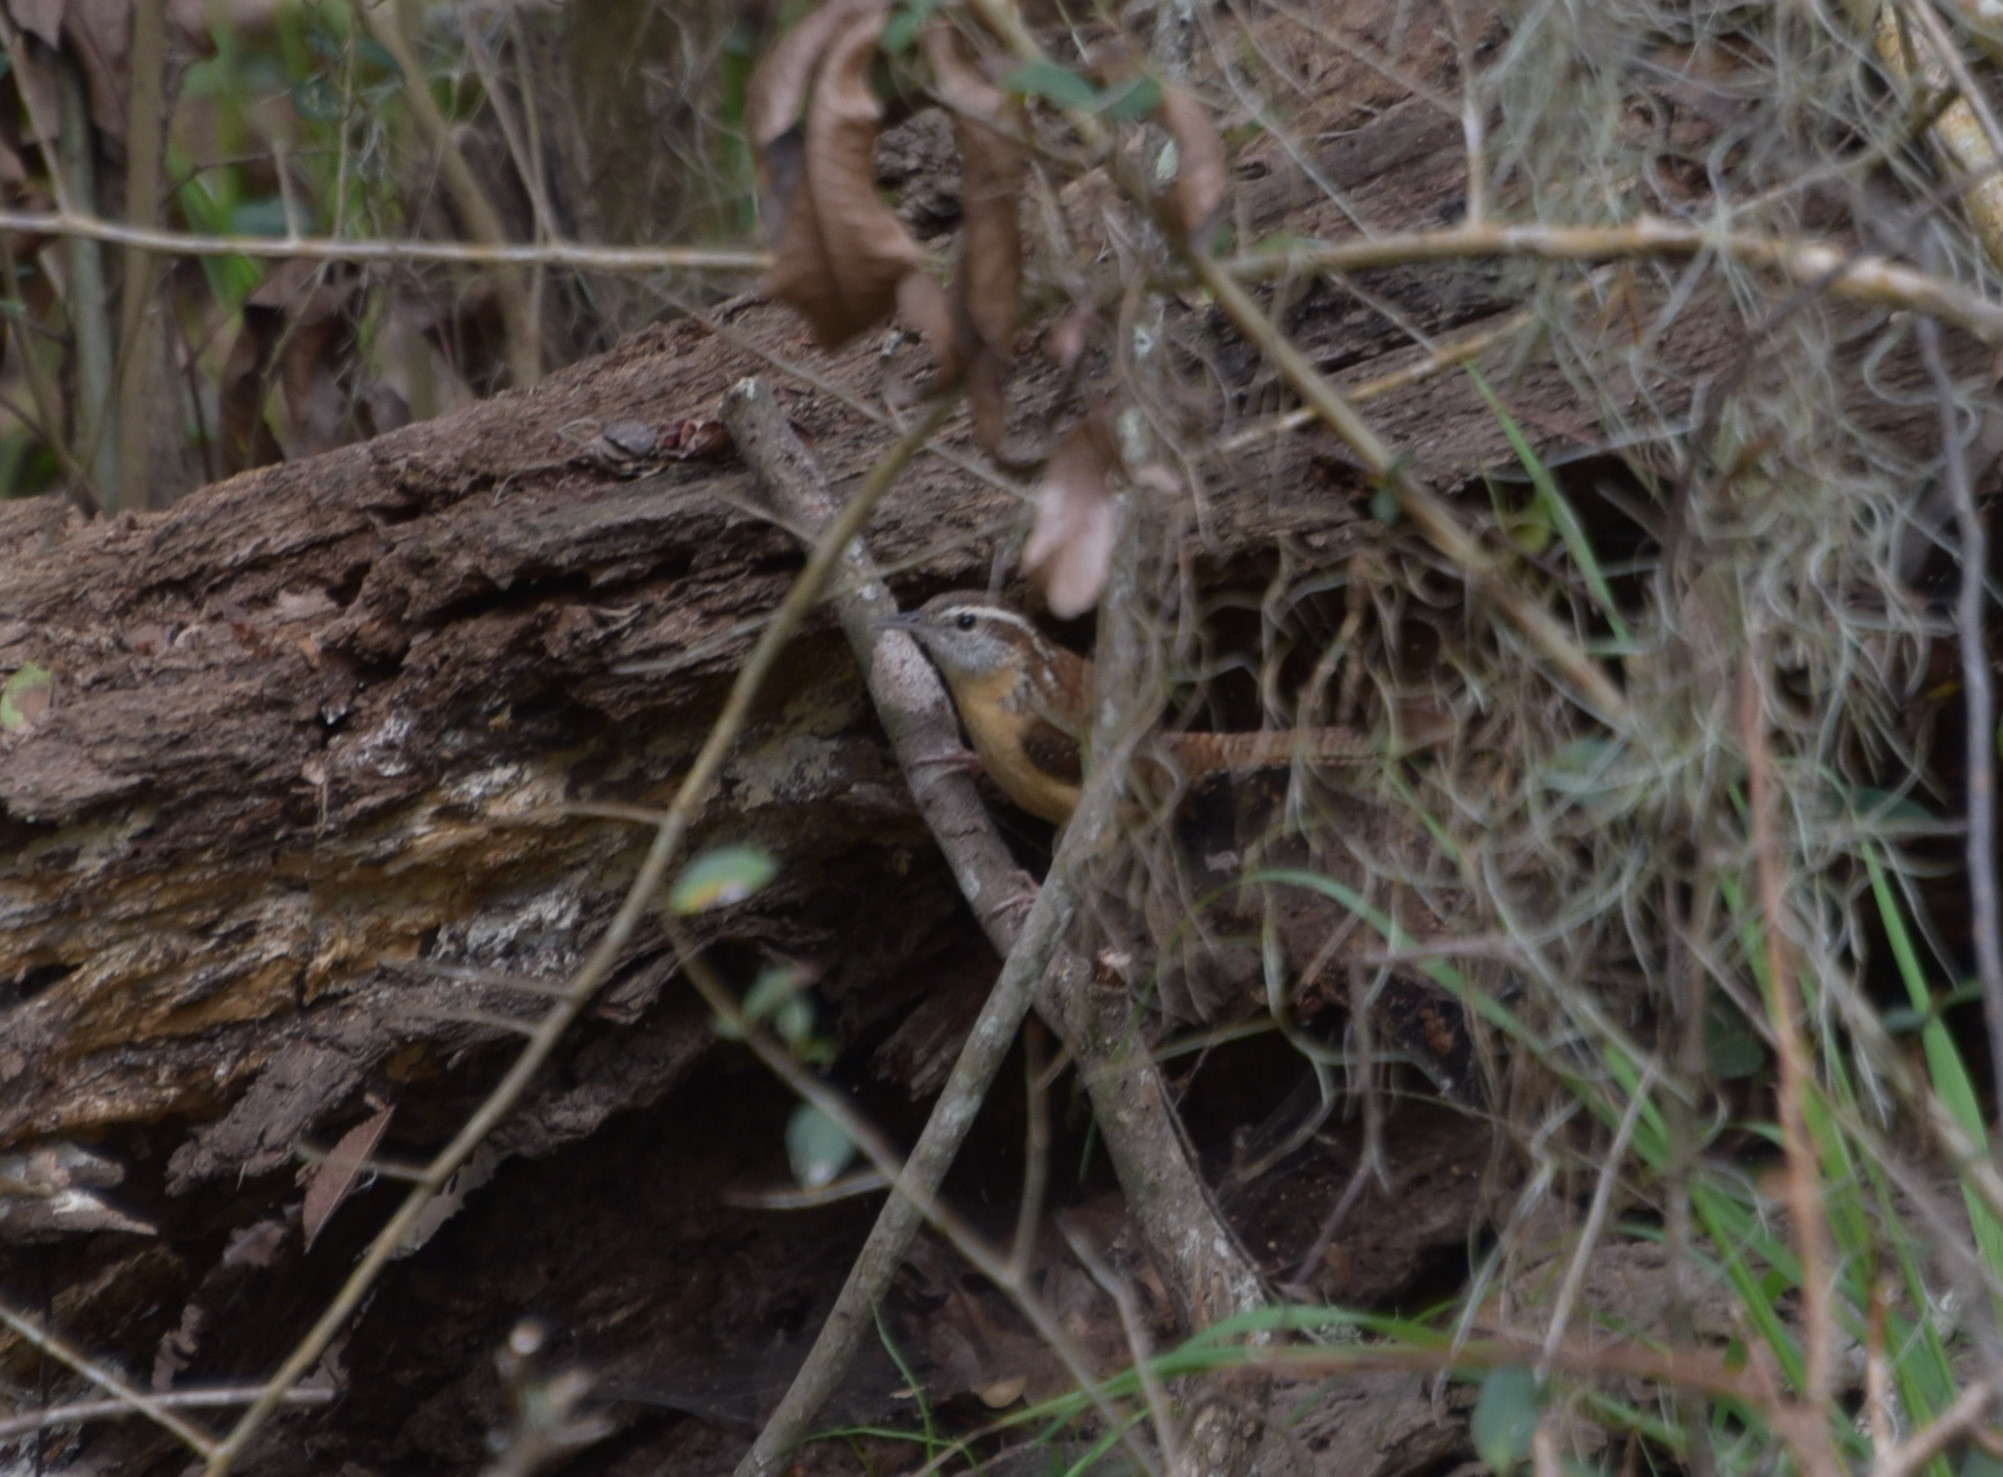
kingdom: Animalia
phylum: Chordata
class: Aves
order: Passeriformes
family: Troglodytidae
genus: Thryothorus
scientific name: Thryothorus ludovicianus
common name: Carolina wren
